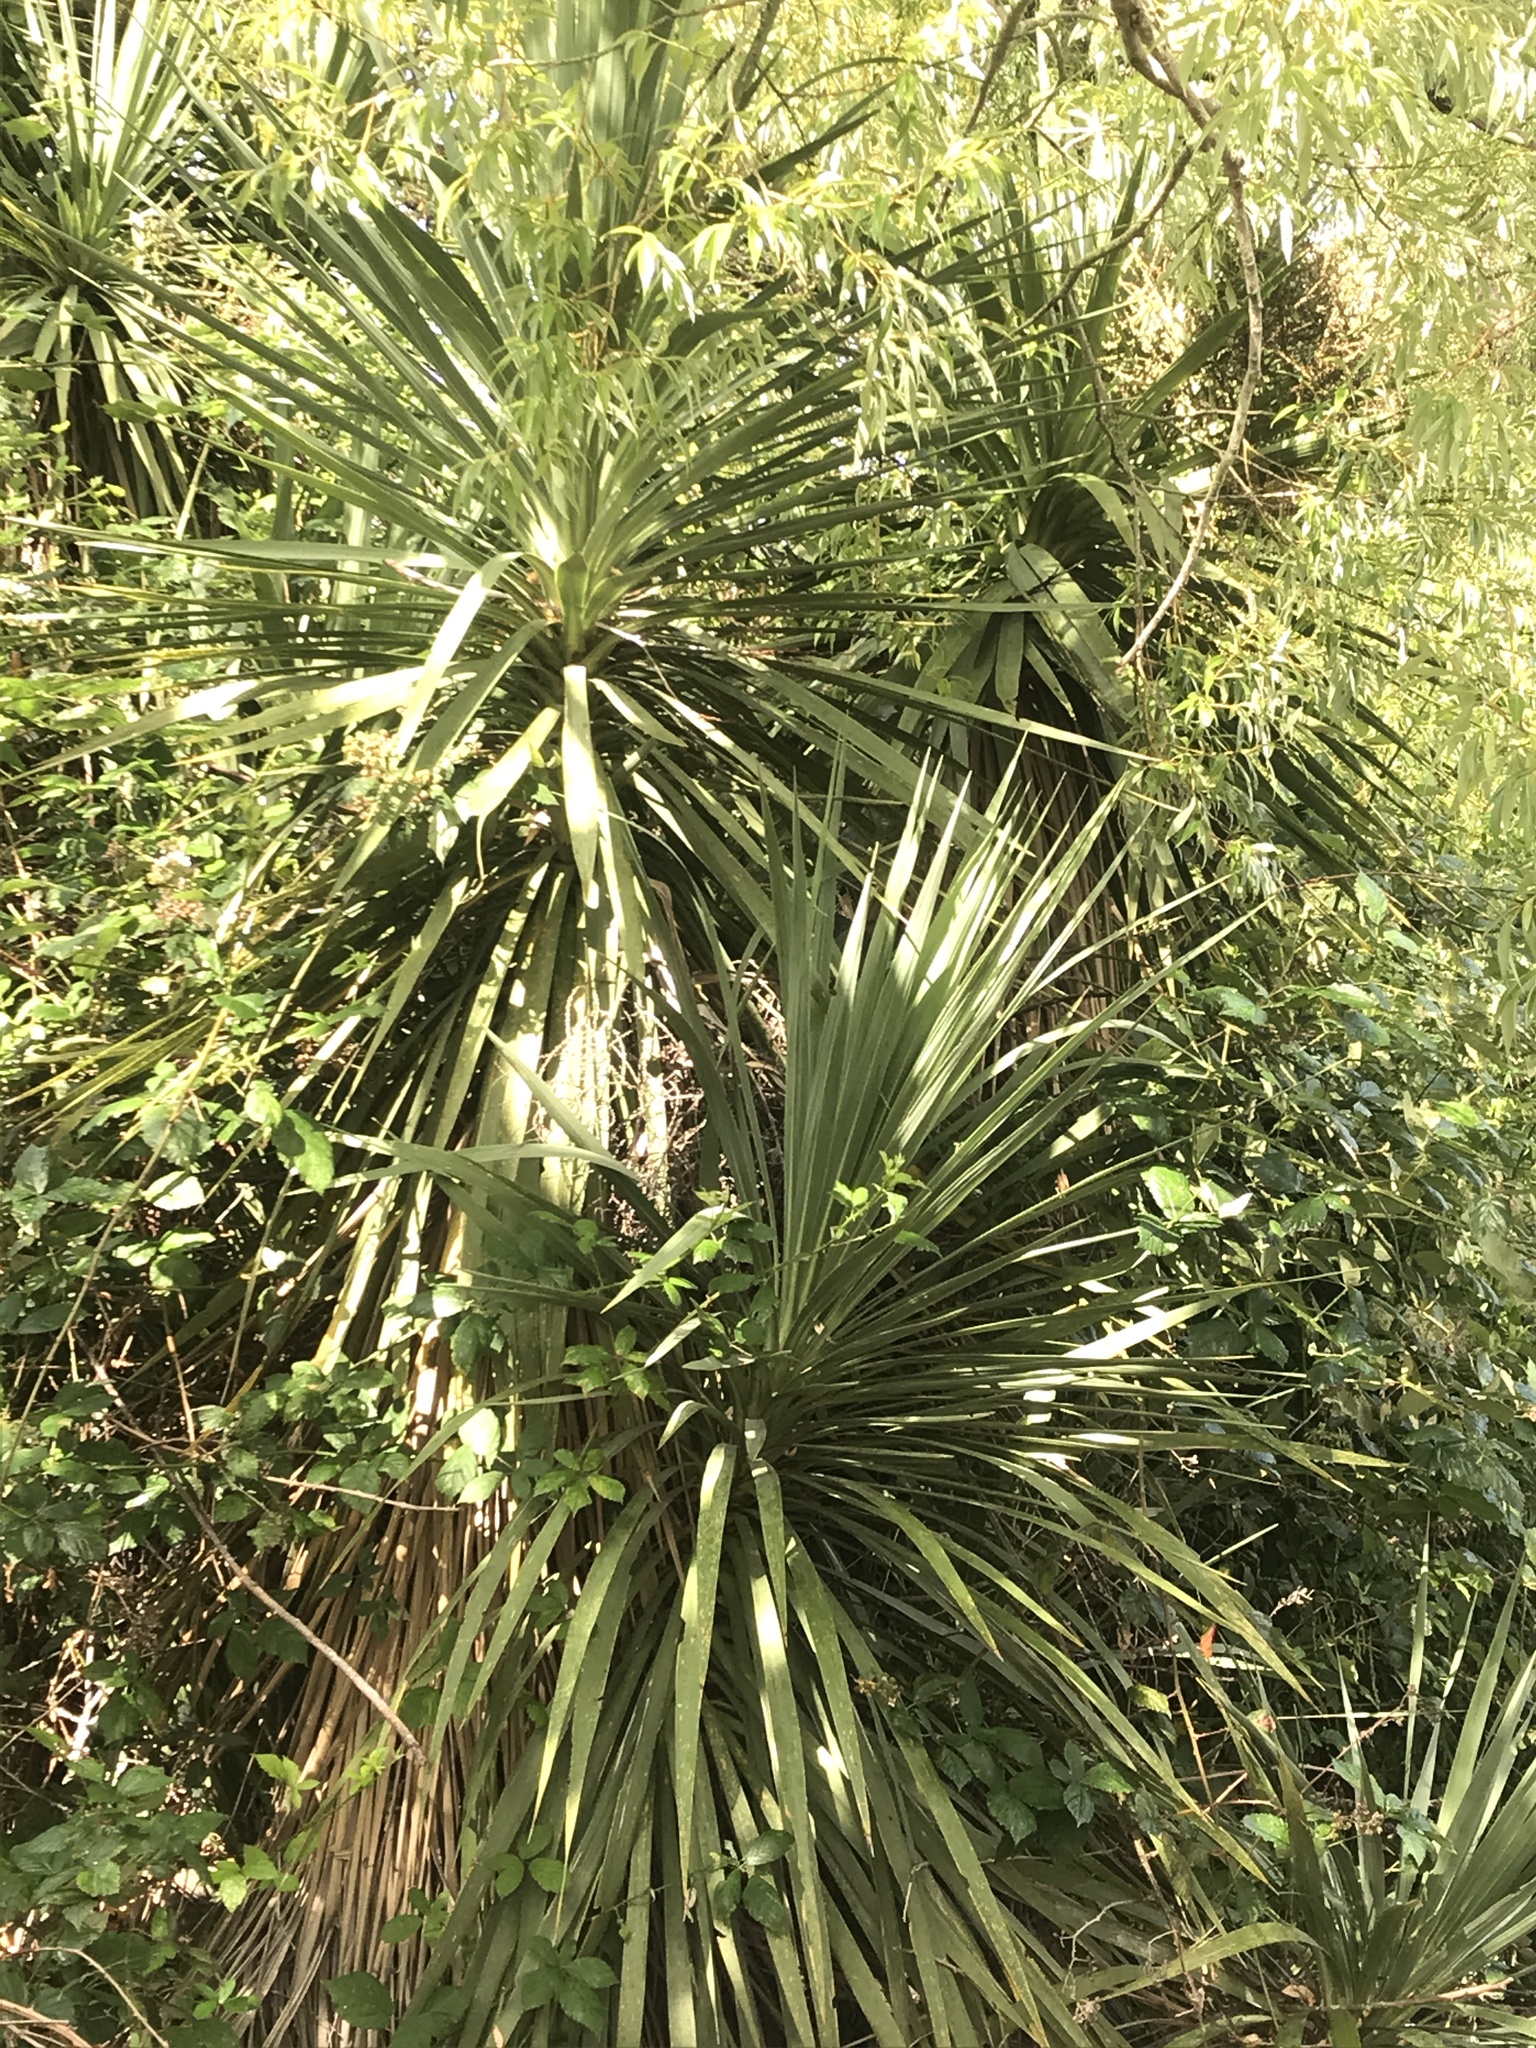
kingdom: Plantae
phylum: Tracheophyta
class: Liliopsida
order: Asparagales
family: Asparagaceae
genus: Cordyline
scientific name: Cordyline australis
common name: Cabbage-palm
